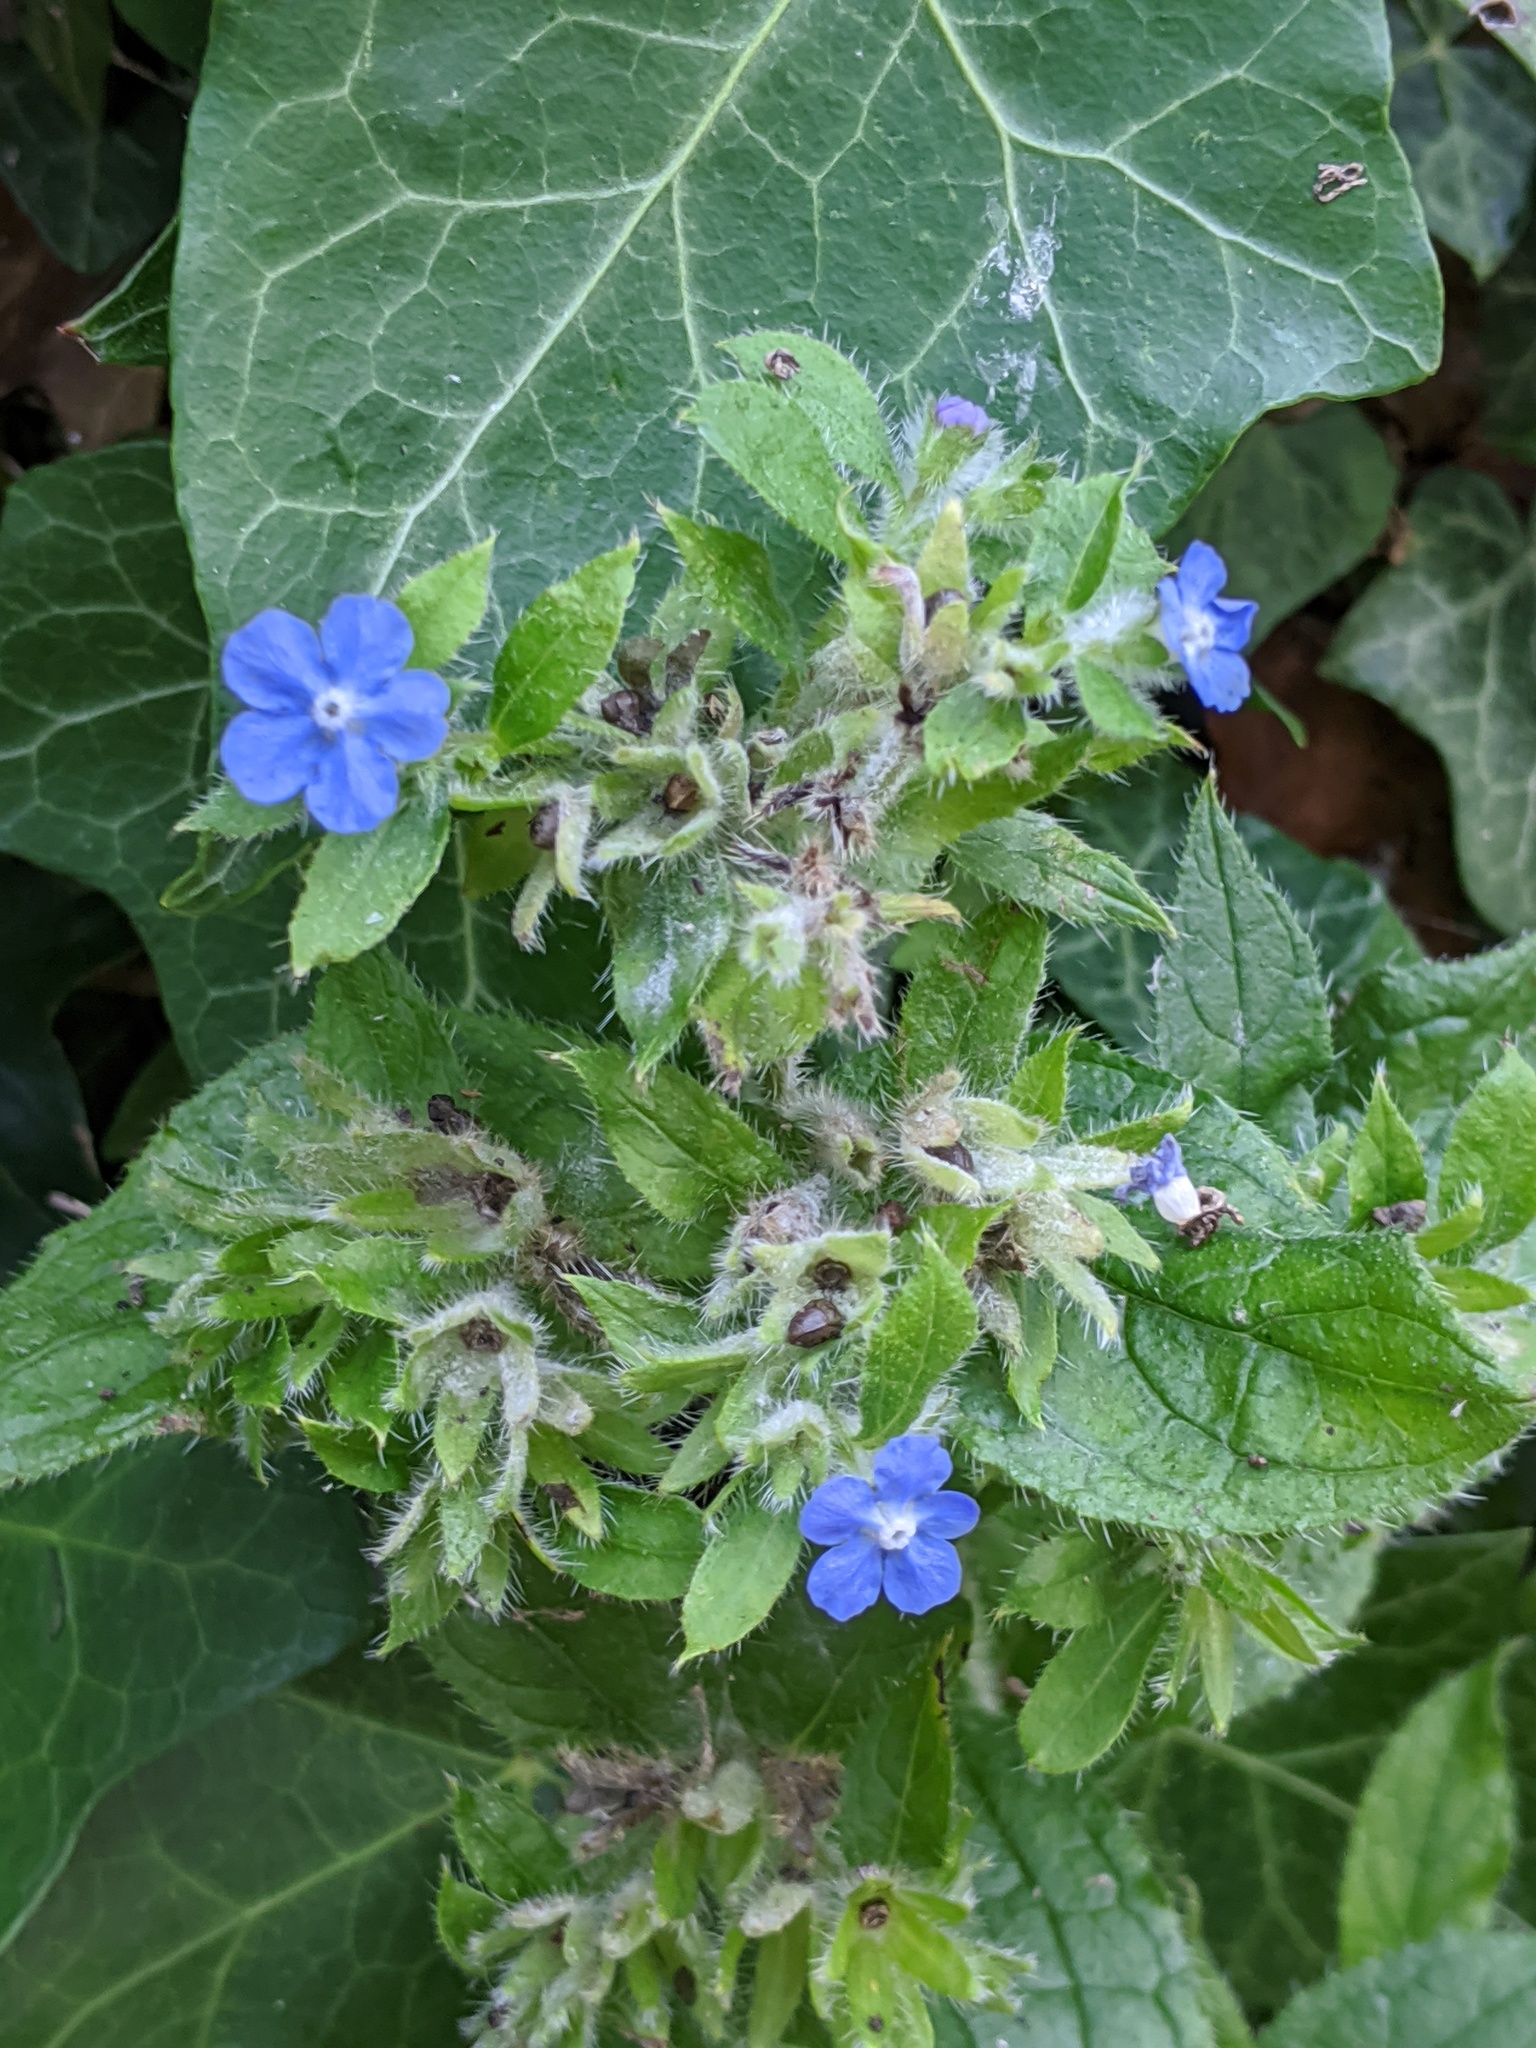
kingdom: Plantae
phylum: Tracheophyta
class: Magnoliopsida
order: Boraginales
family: Boraginaceae
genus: Pentaglottis
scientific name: Pentaglottis sempervirens
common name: Green alkanet
